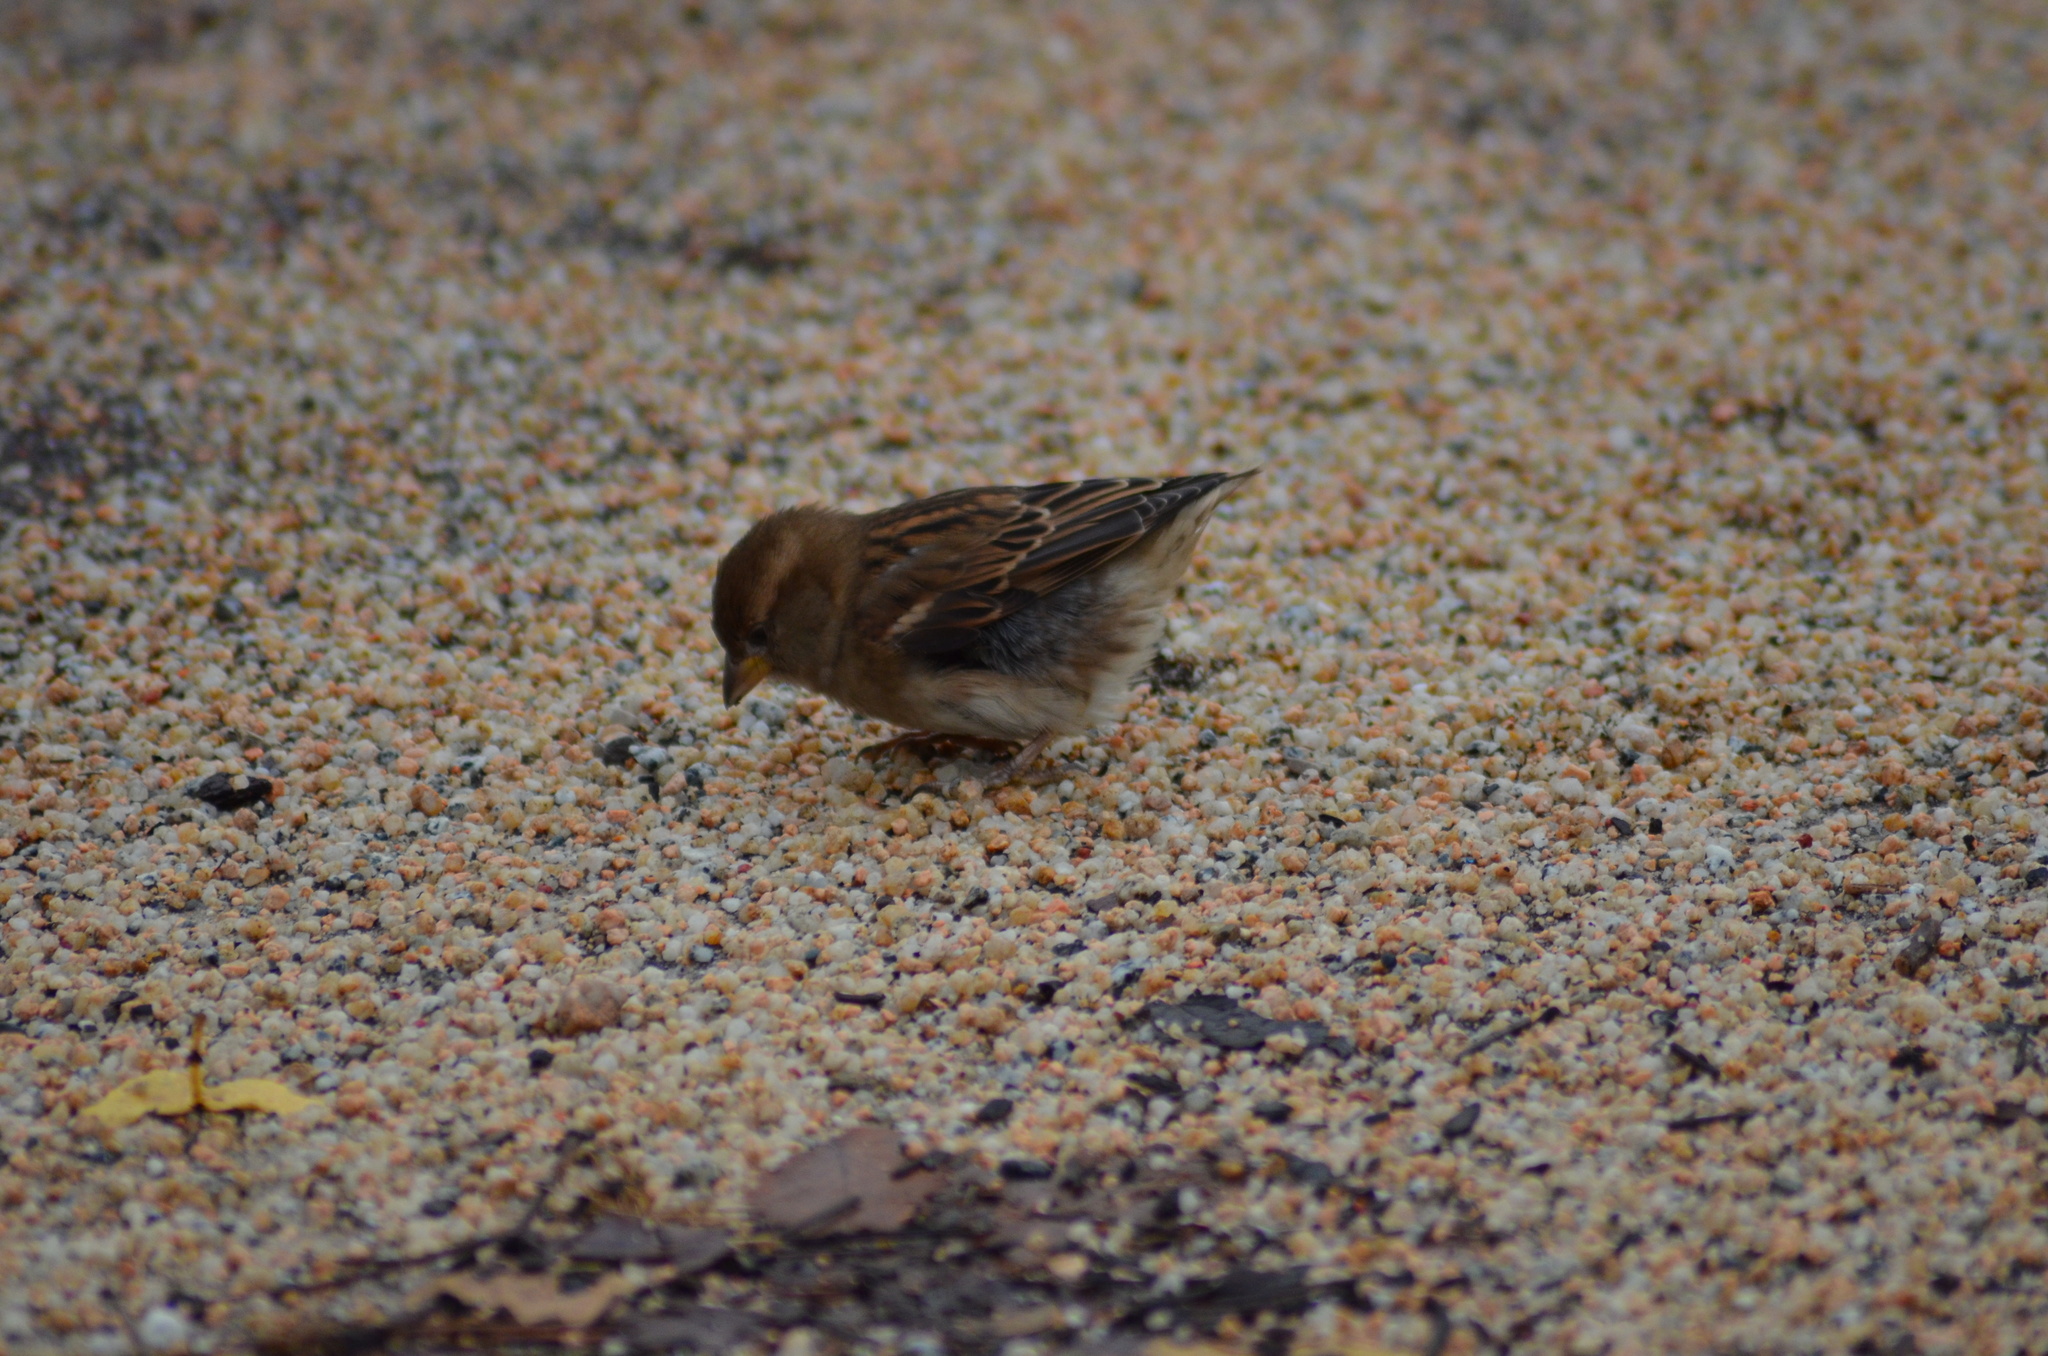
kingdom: Animalia
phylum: Chordata
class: Aves
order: Passeriformes
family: Passeridae
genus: Passer
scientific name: Passer domesticus
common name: House sparrow
